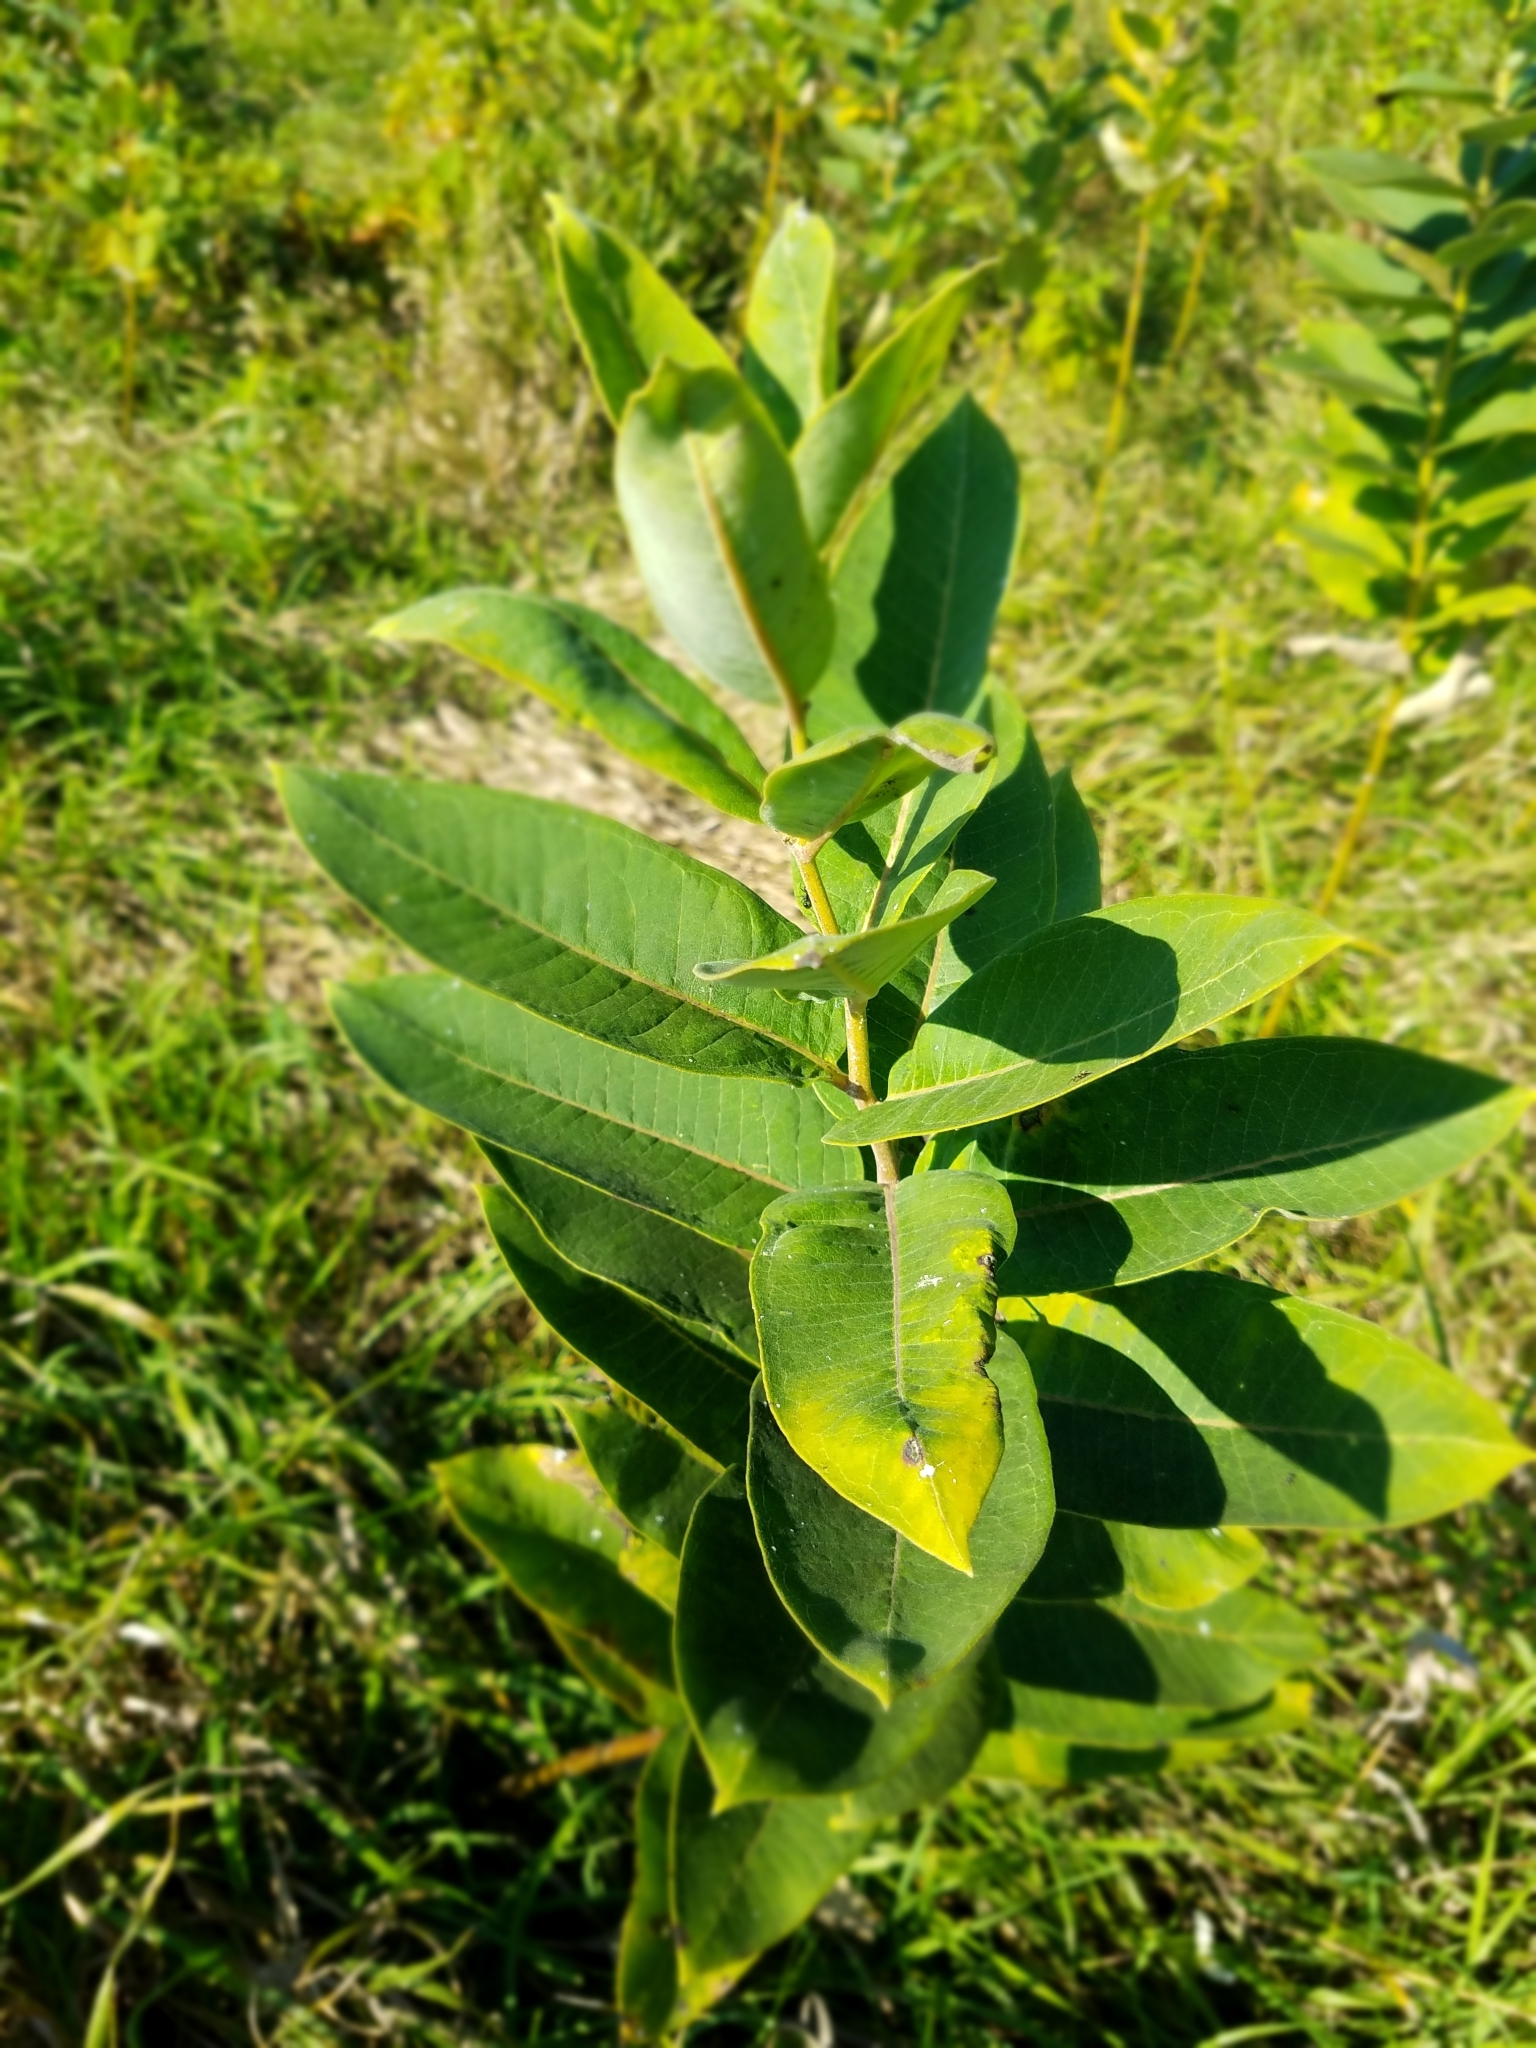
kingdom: Plantae
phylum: Tracheophyta
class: Magnoliopsida
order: Gentianales
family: Apocynaceae
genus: Asclepias
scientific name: Asclepias syriaca
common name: Common milkweed
